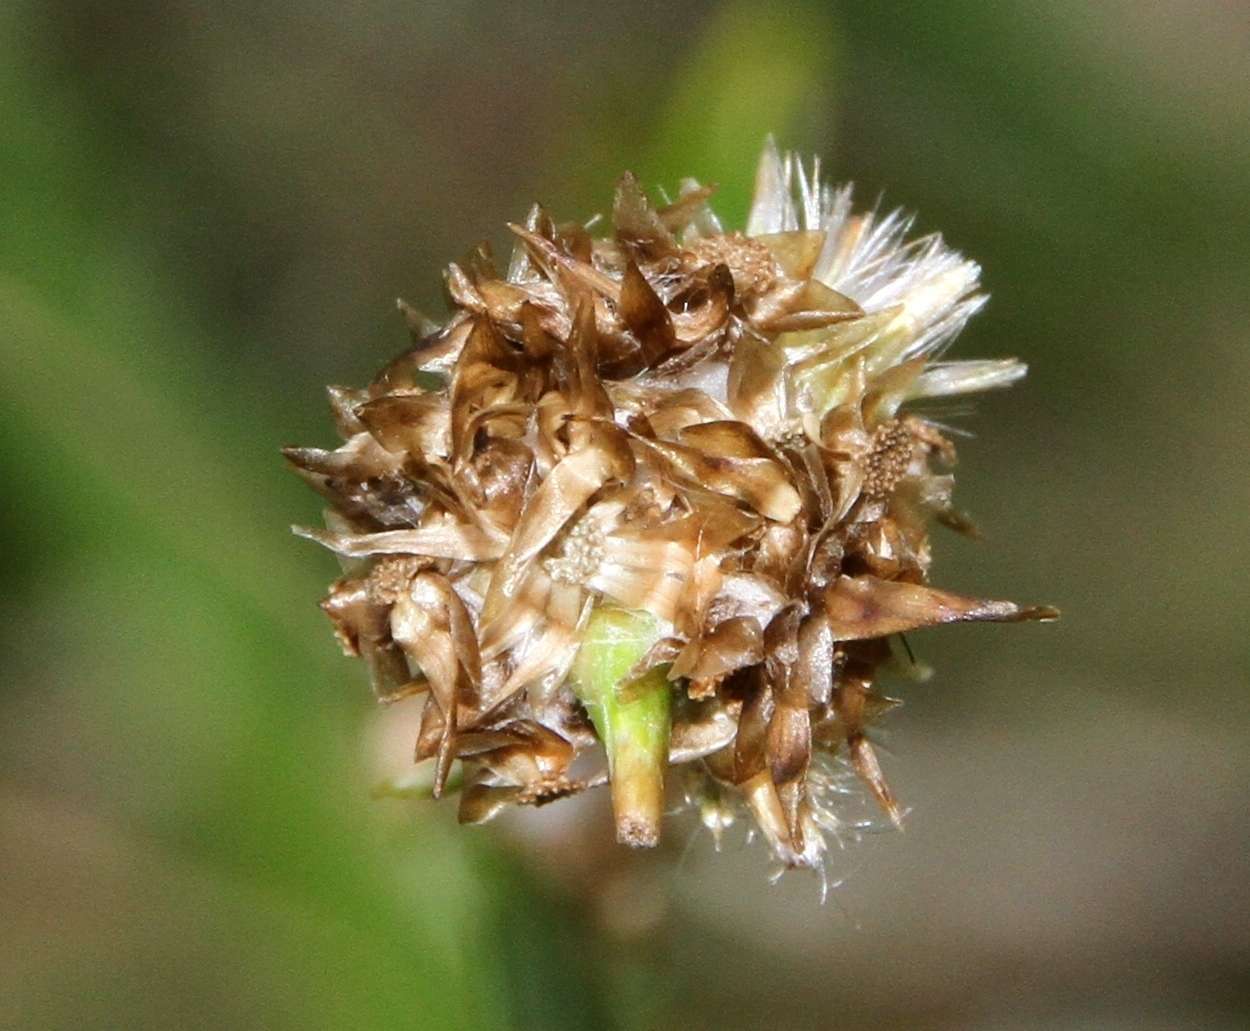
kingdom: Plantae
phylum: Tracheophyta
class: Magnoliopsida
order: Asterales
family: Asteraceae
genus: Euchiton
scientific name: Euchiton japonicus
